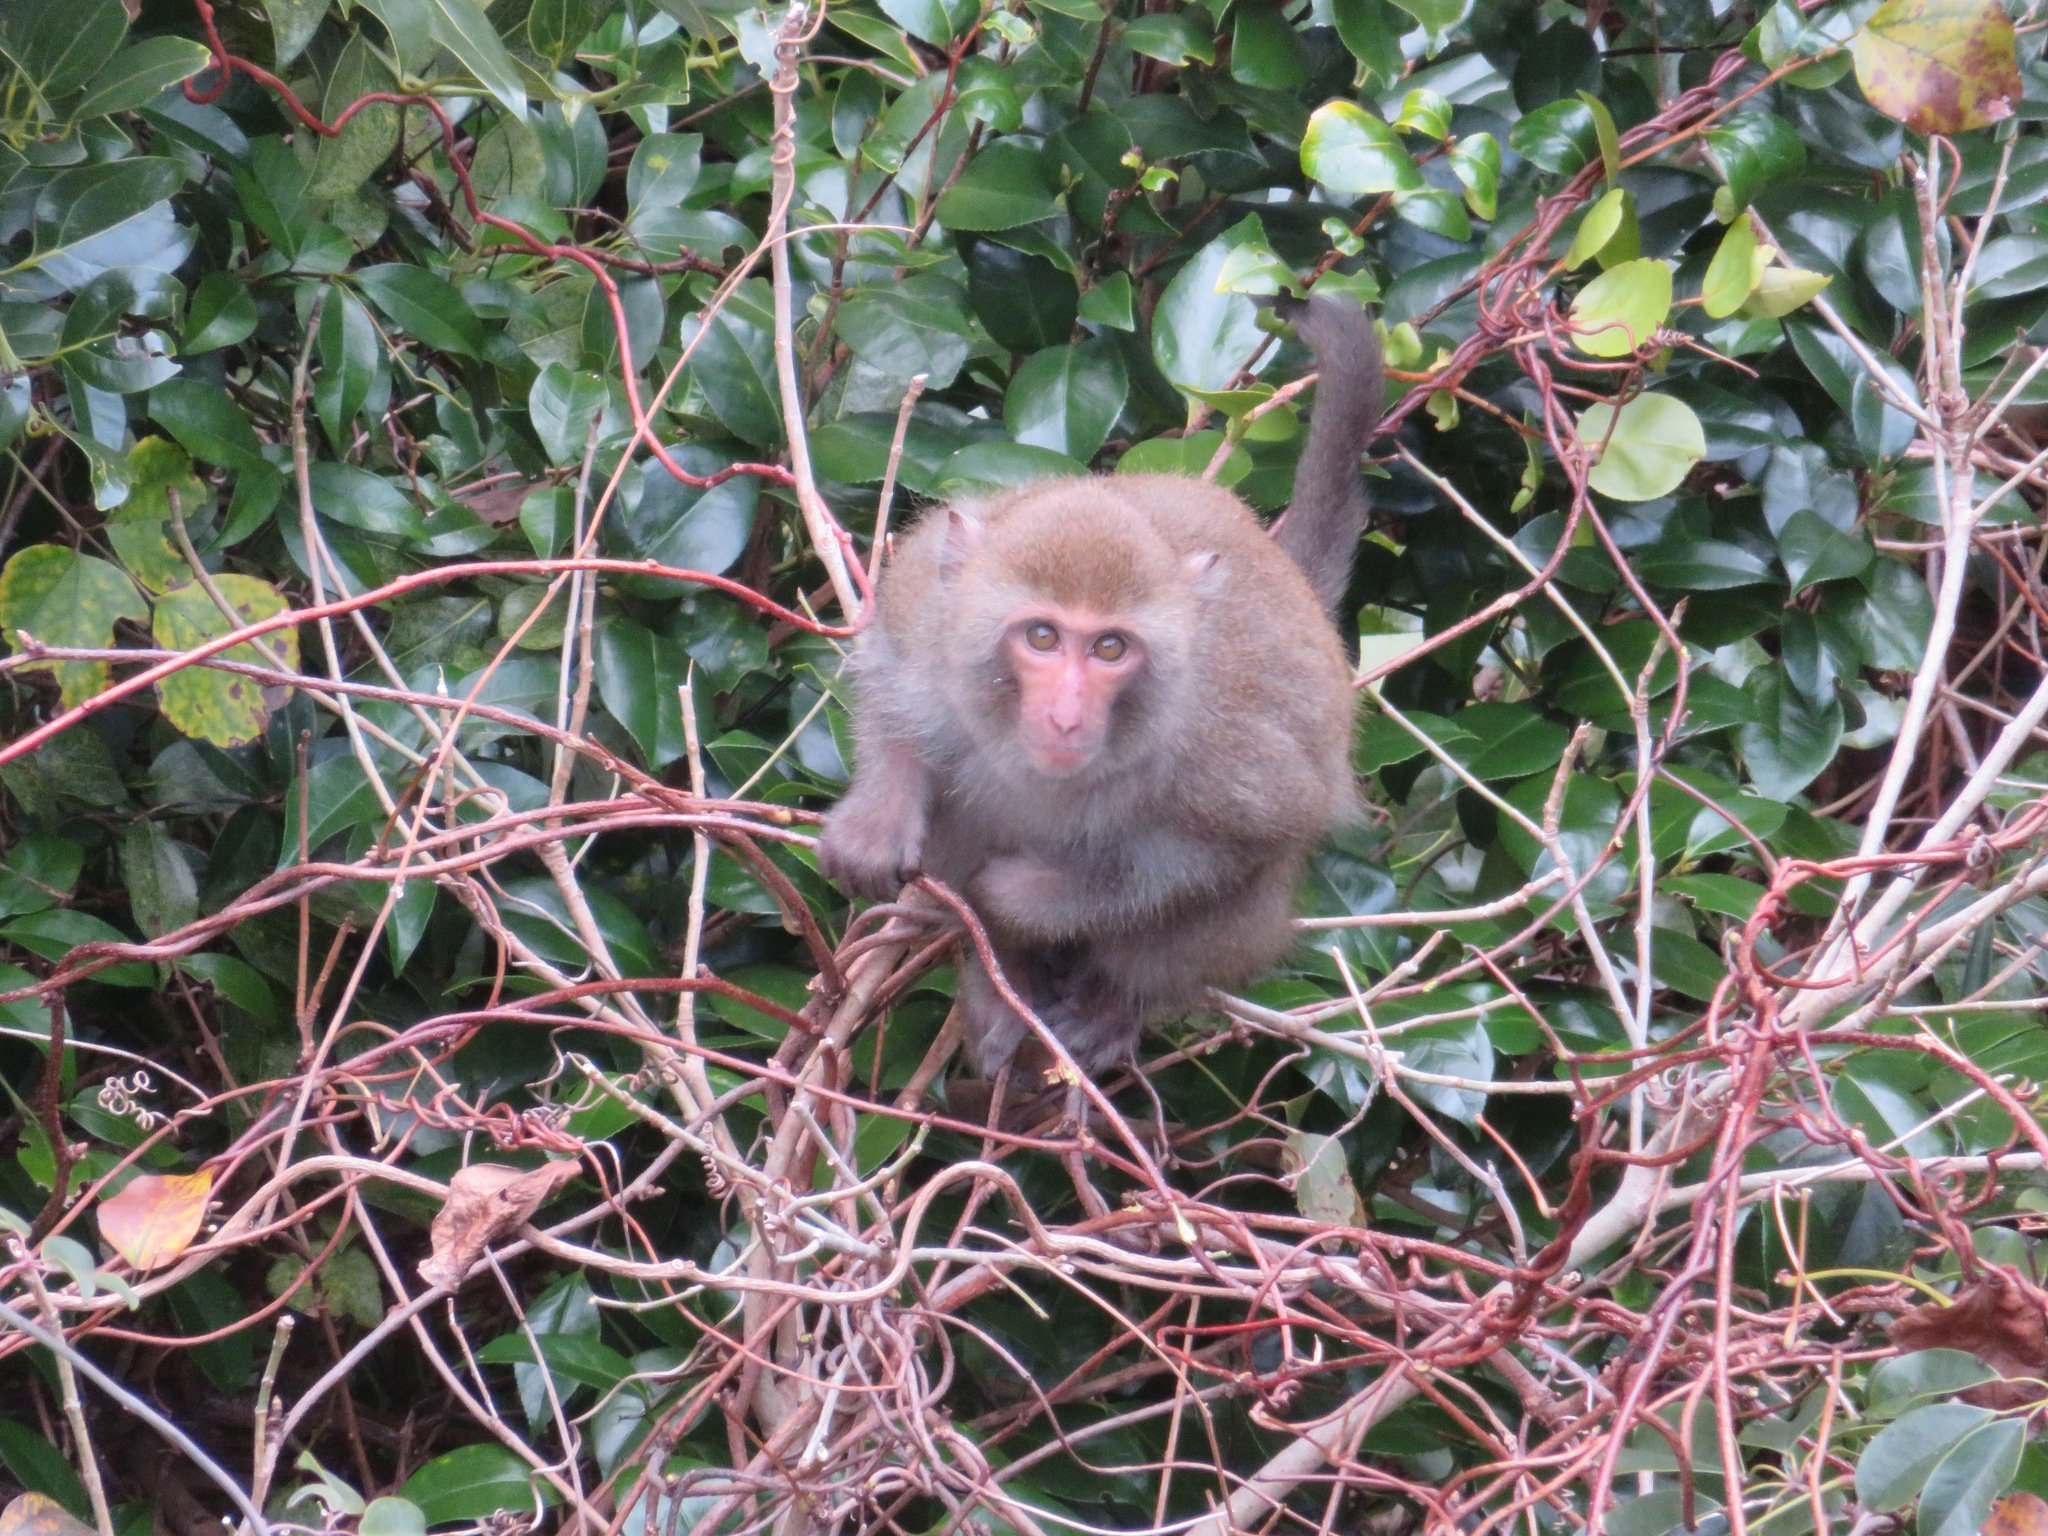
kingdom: Animalia
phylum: Chordata
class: Mammalia
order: Primates
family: Cercopithecidae
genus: Macaca
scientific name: Macaca cyclopis
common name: Formosan rock macaque
